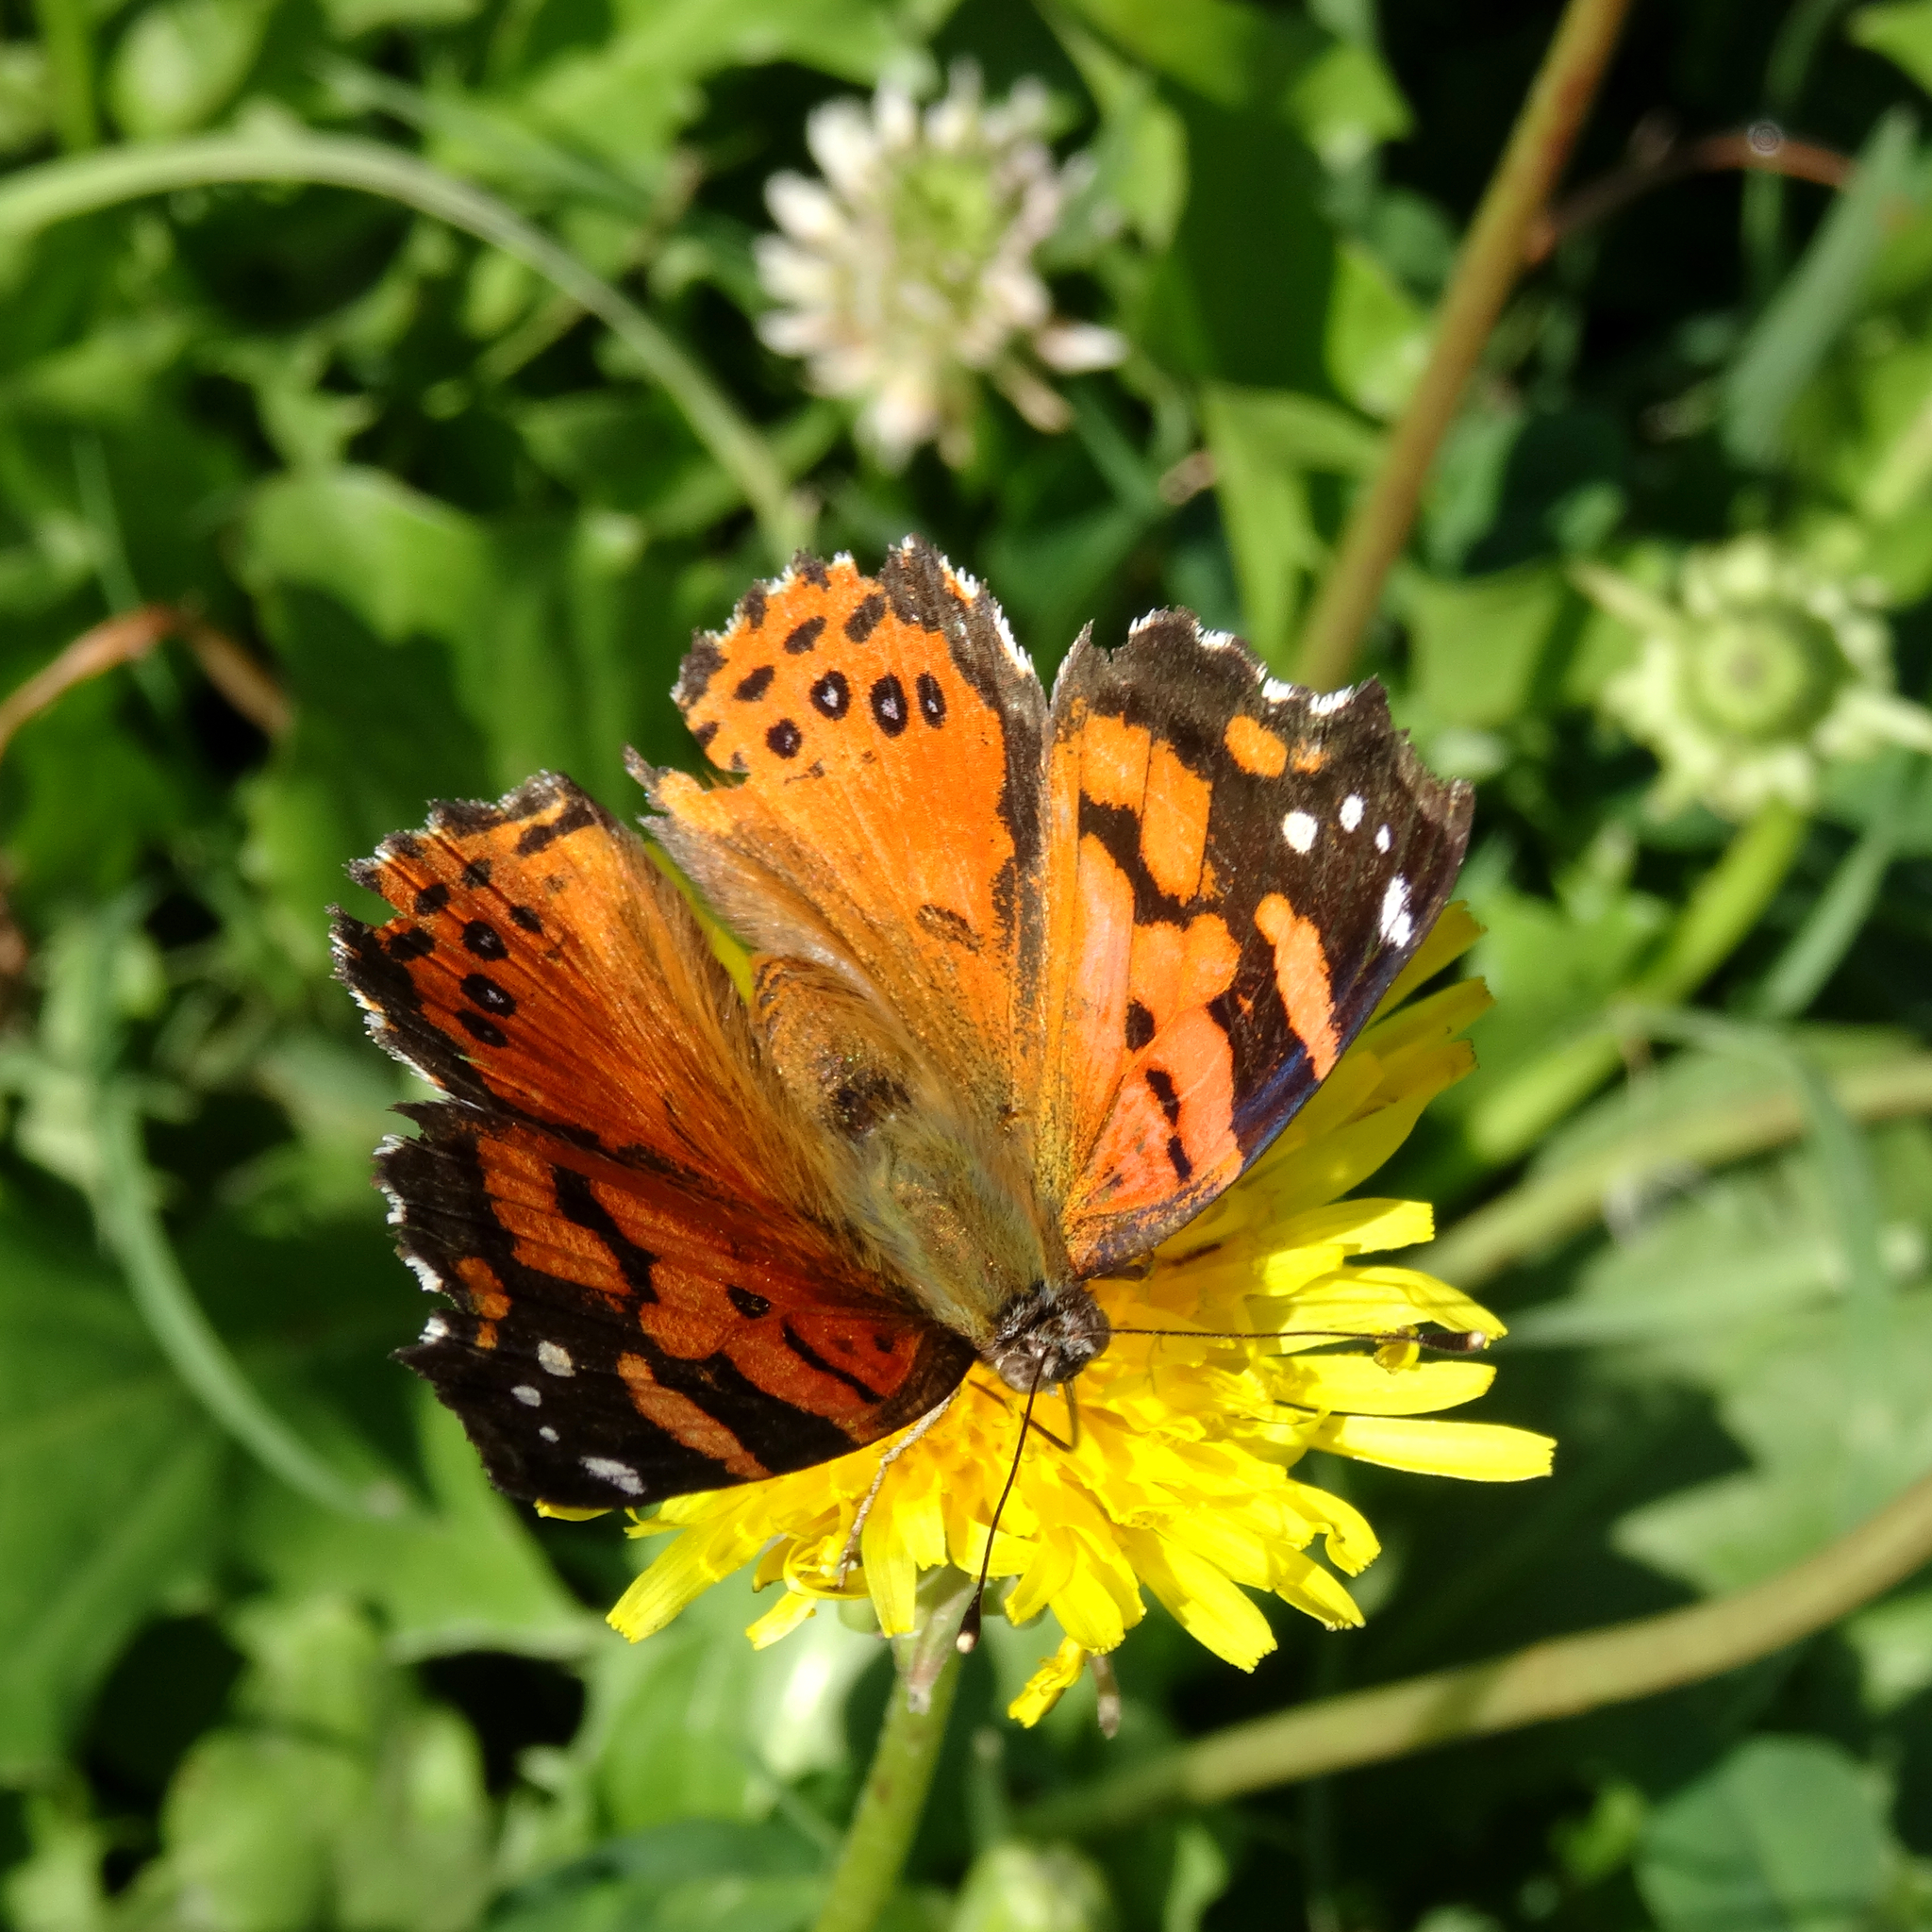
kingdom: Animalia
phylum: Arthropoda
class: Insecta
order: Lepidoptera
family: Nymphalidae
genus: Vanessa
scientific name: Vanessa carye
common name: Subtropical lady
